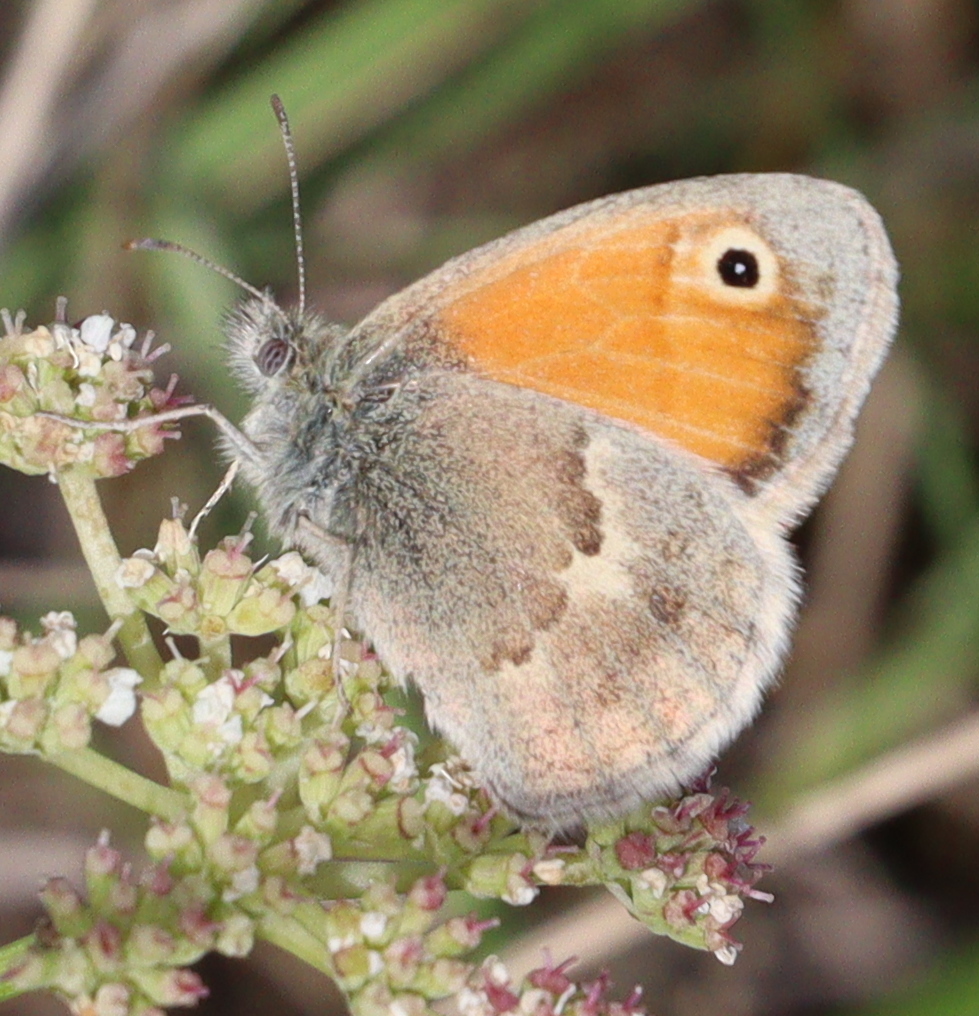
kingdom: Animalia
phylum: Arthropoda
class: Insecta
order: Lepidoptera
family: Nymphalidae
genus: Coenonympha
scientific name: Coenonympha pamphilus
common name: Small heath
